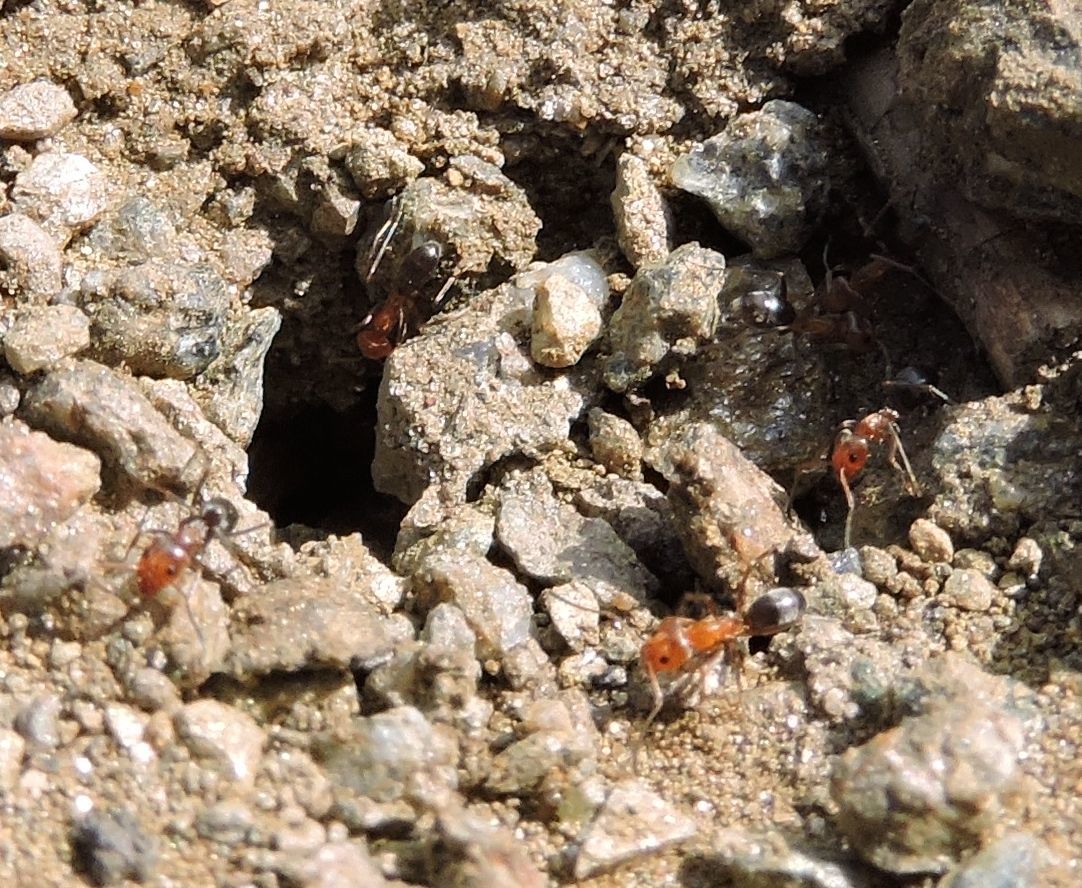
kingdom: Animalia
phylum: Arthropoda
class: Insecta
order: Hymenoptera
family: Formicidae
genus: Dorymyrmex
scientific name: Dorymyrmex bicolor
